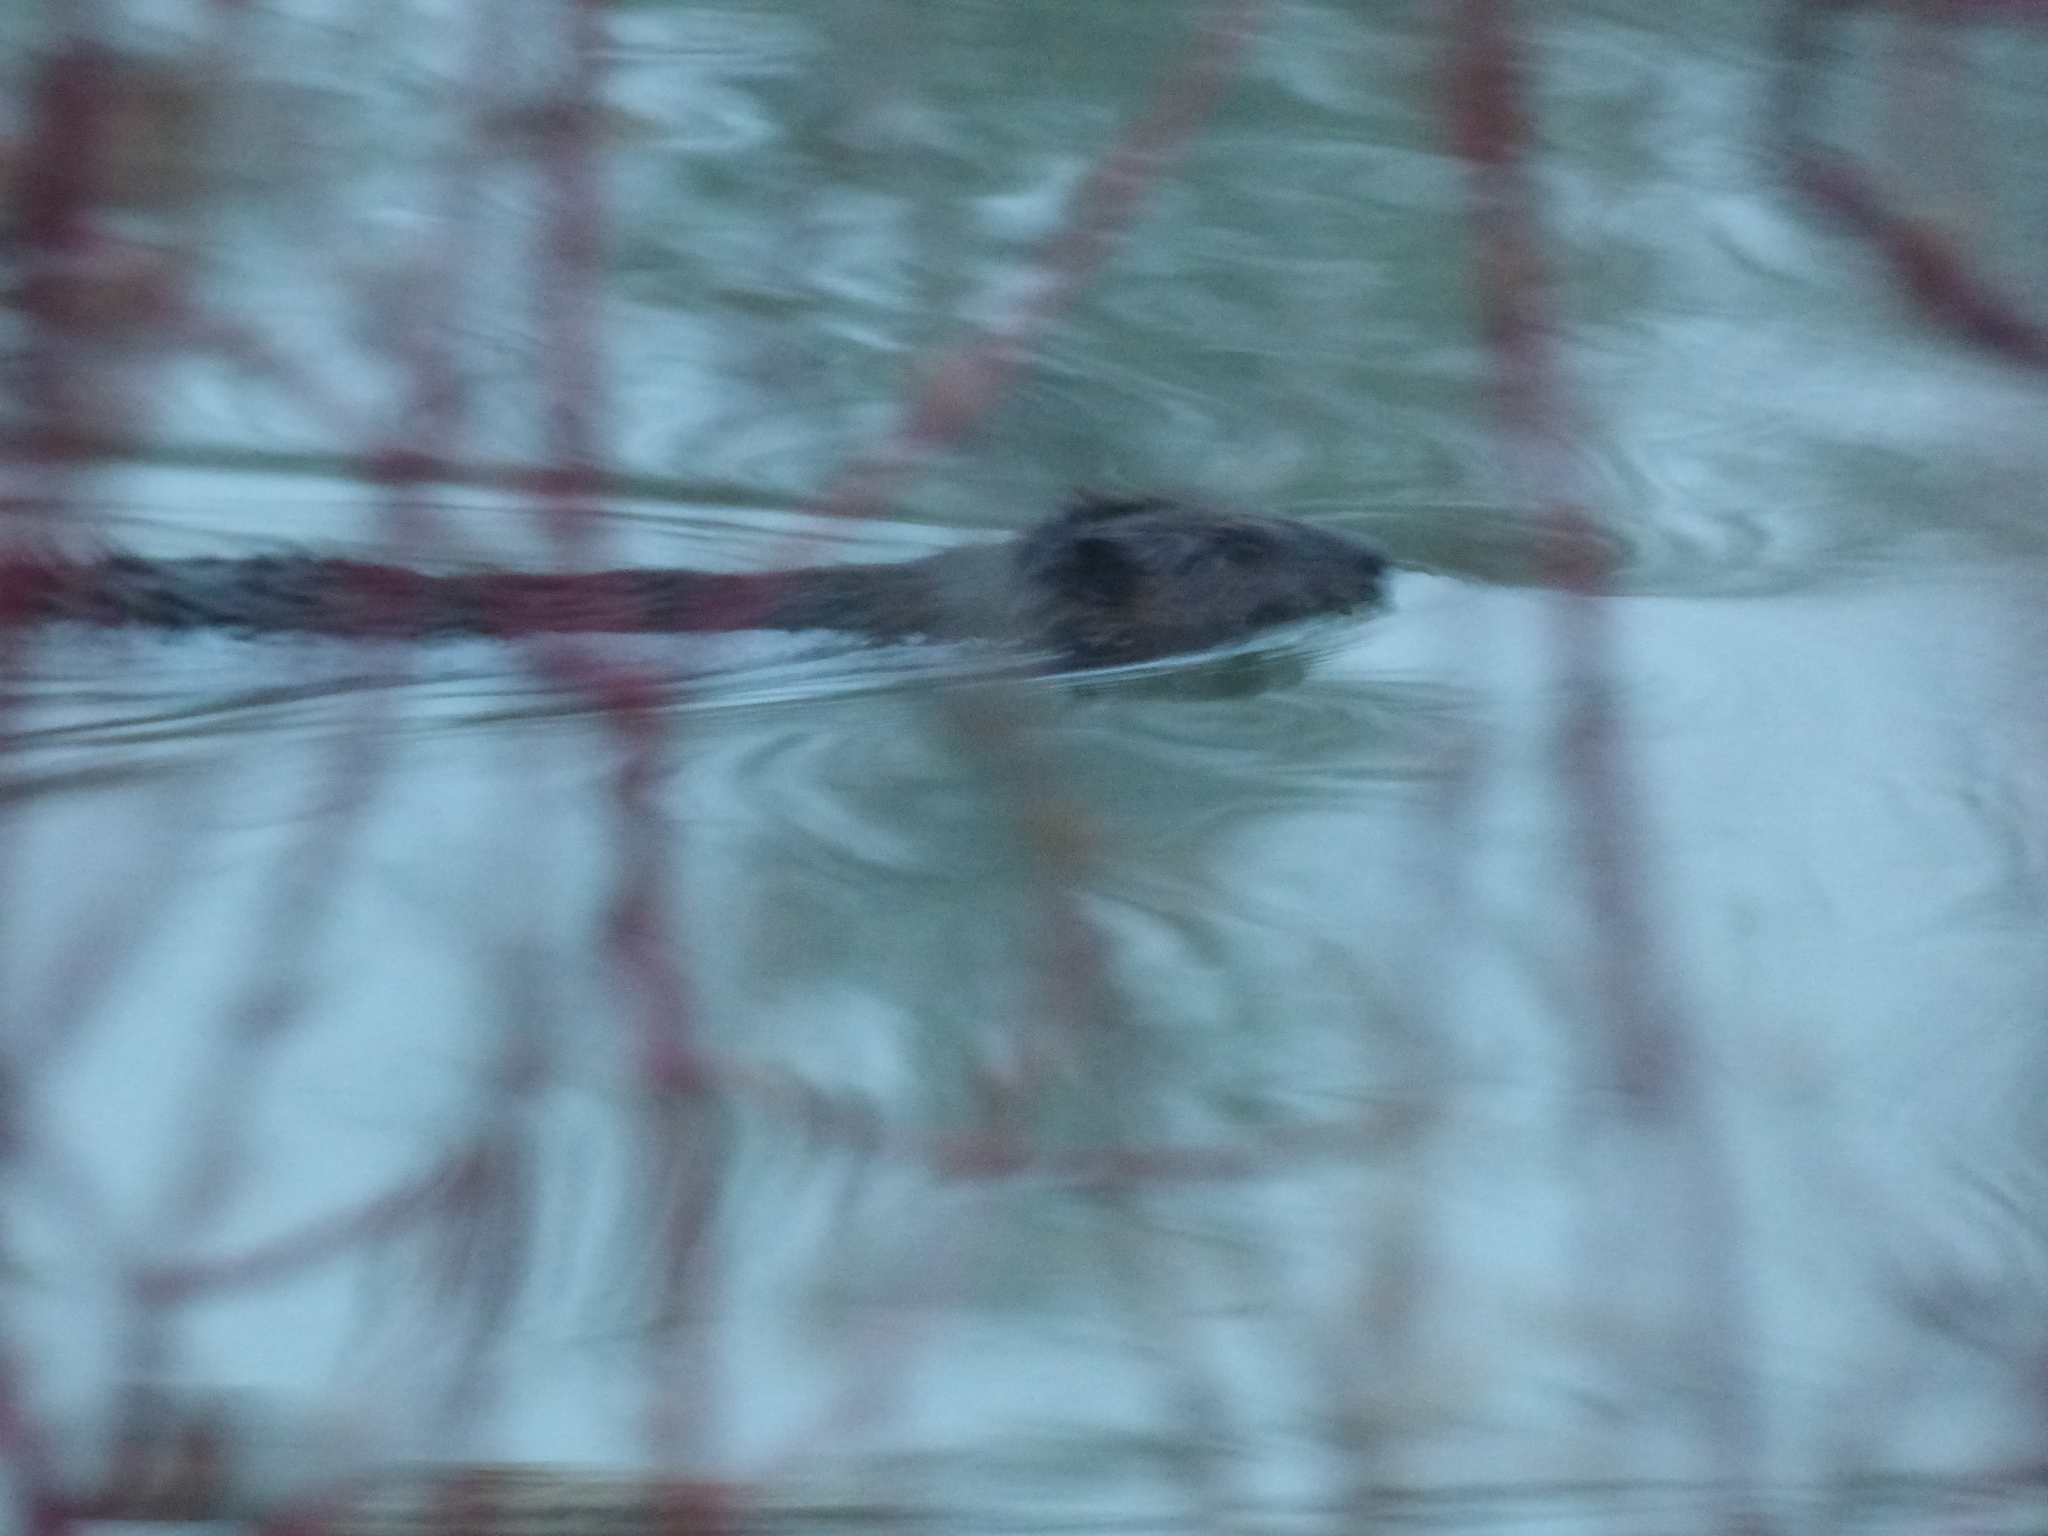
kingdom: Animalia
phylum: Chordata
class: Mammalia
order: Rodentia
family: Castoridae
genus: Castor
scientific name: Castor canadensis
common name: American beaver
